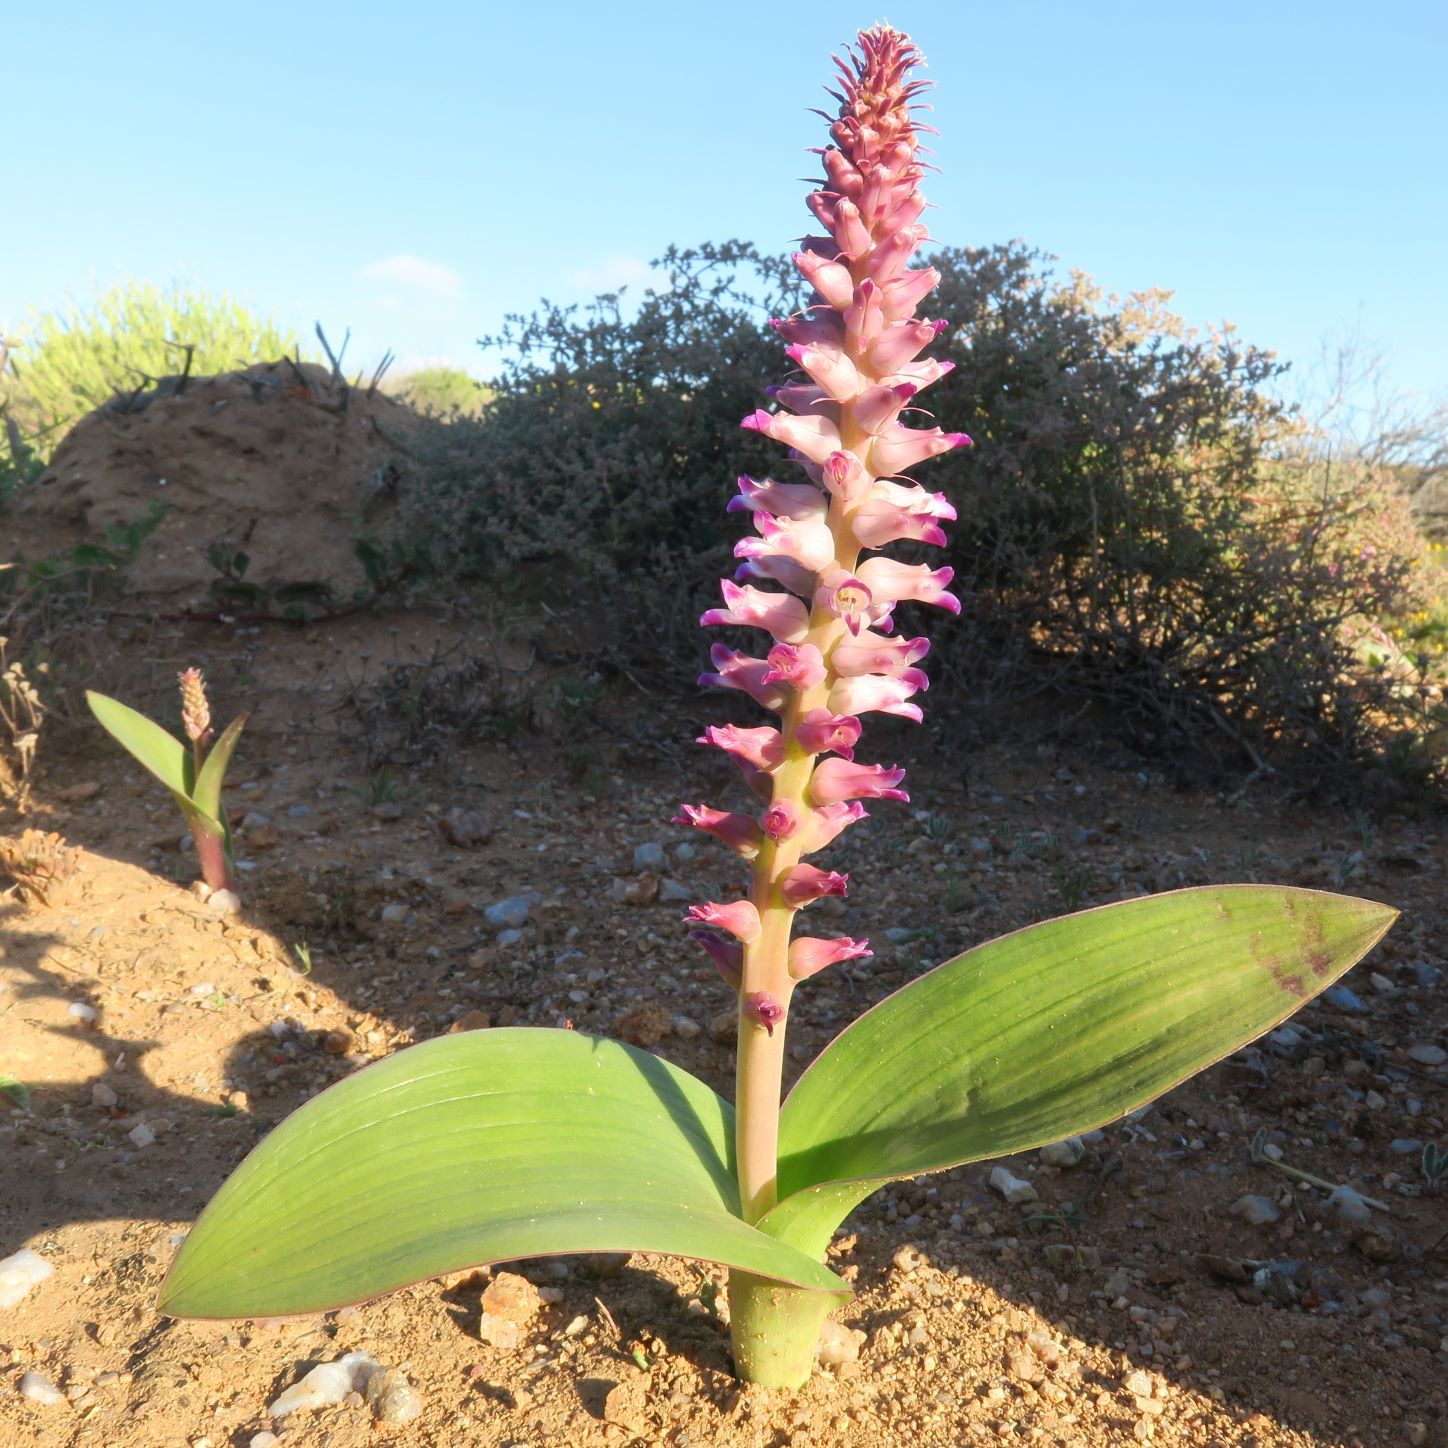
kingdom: Plantae
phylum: Tracheophyta
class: Liliopsida
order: Asparagales
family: Asparagaceae
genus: Lachenalia
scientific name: Lachenalia carnosa
